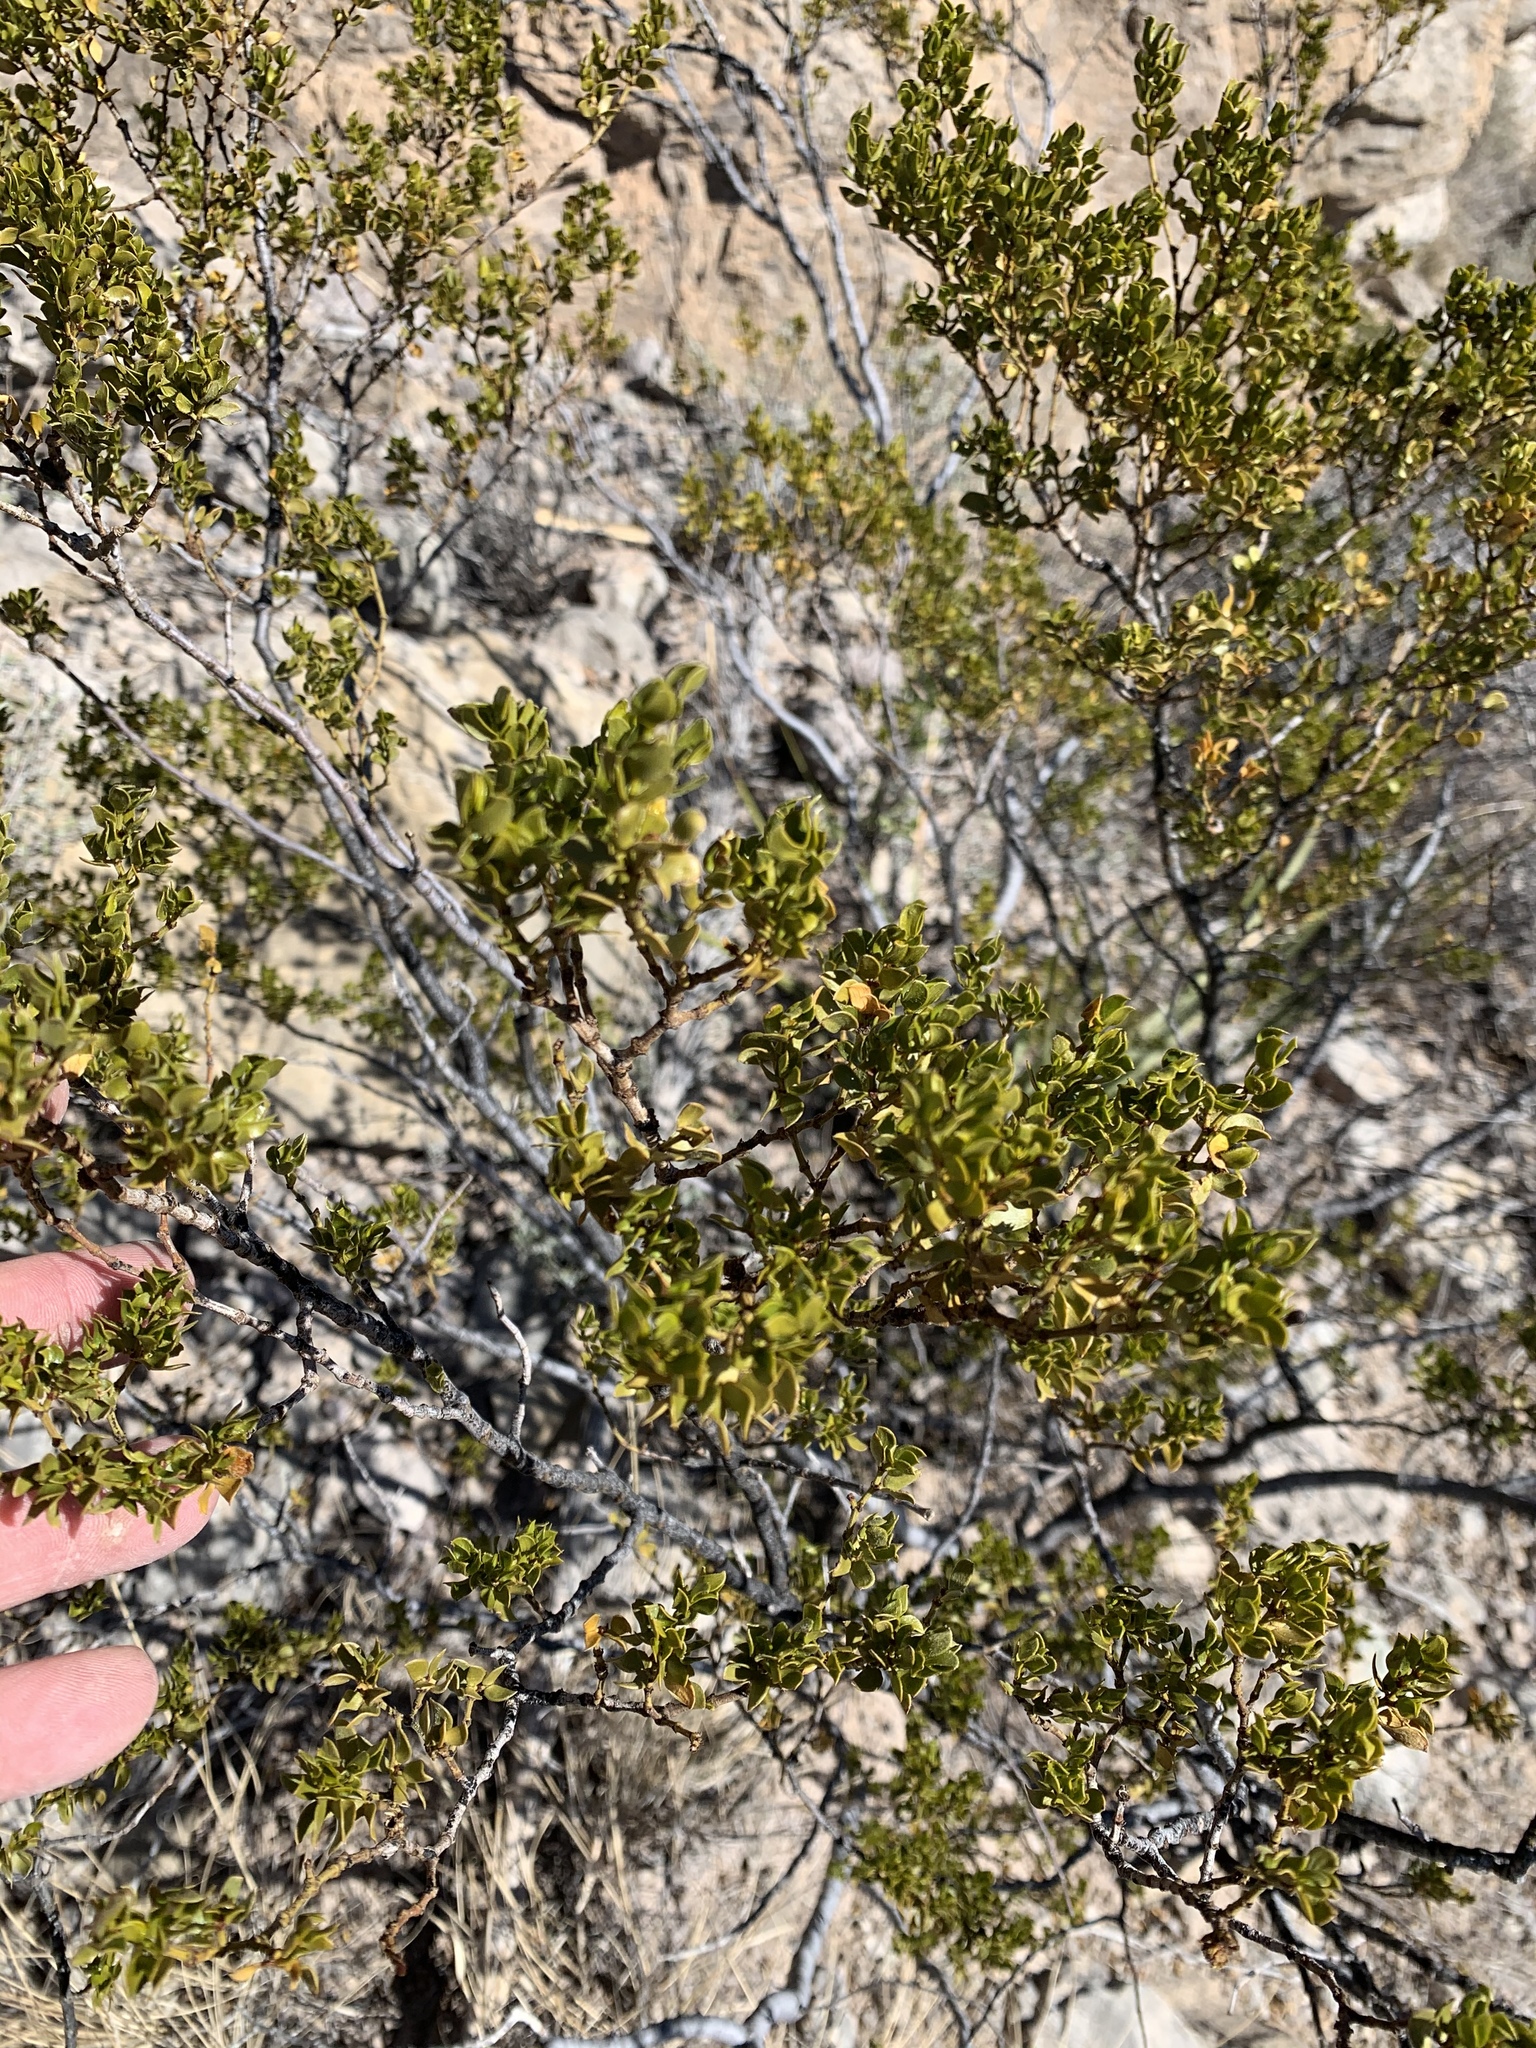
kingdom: Plantae
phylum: Tracheophyta
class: Magnoliopsida
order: Zygophyllales
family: Zygophyllaceae
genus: Larrea
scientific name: Larrea tridentata
